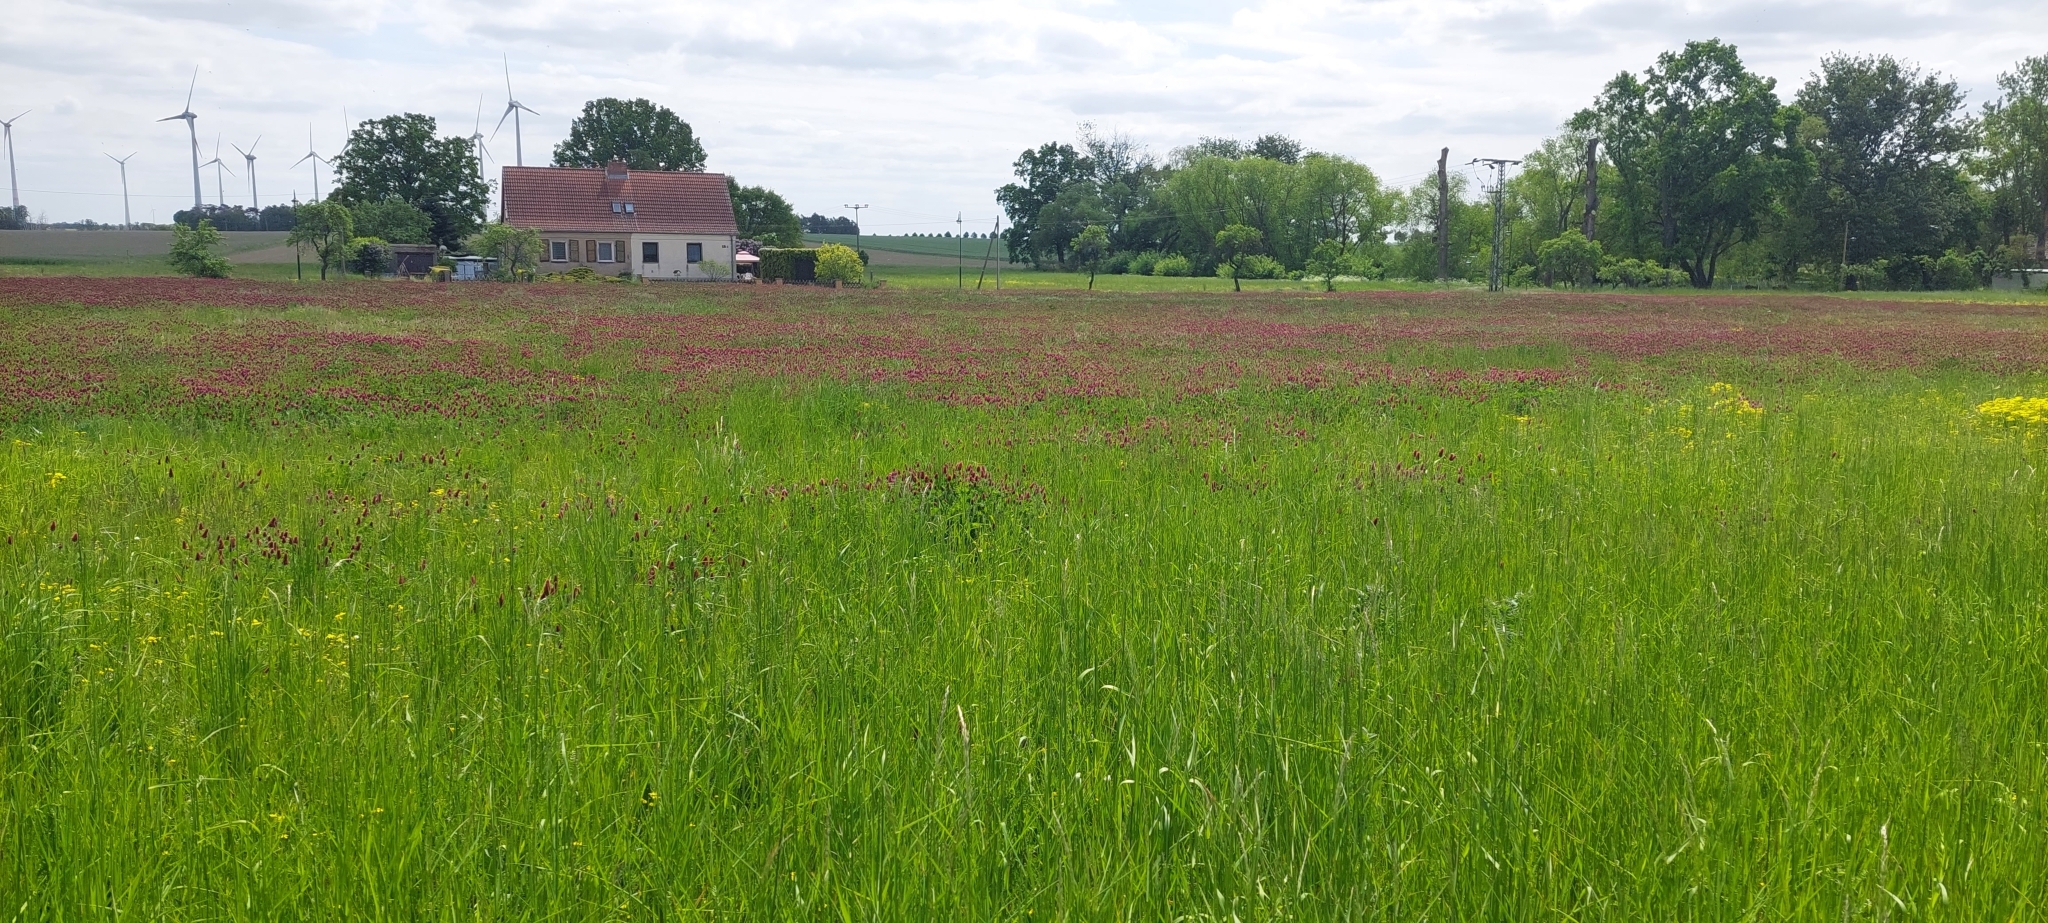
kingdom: Plantae
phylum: Tracheophyta
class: Magnoliopsida
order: Fabales
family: Fabaceae
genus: Trifolium
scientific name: Trifolium incarnatum
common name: Crimson clover
